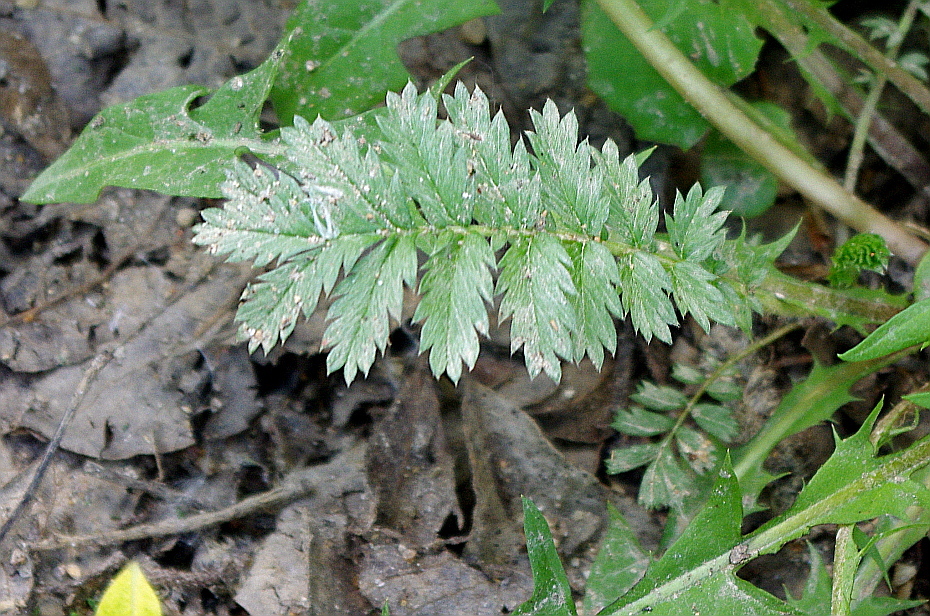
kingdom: Plantae
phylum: Tracheophyta
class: Magnoliopsida
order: Rosales
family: Rosaceae
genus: Argentina
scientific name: Argentina anserina
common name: Common silverweed
